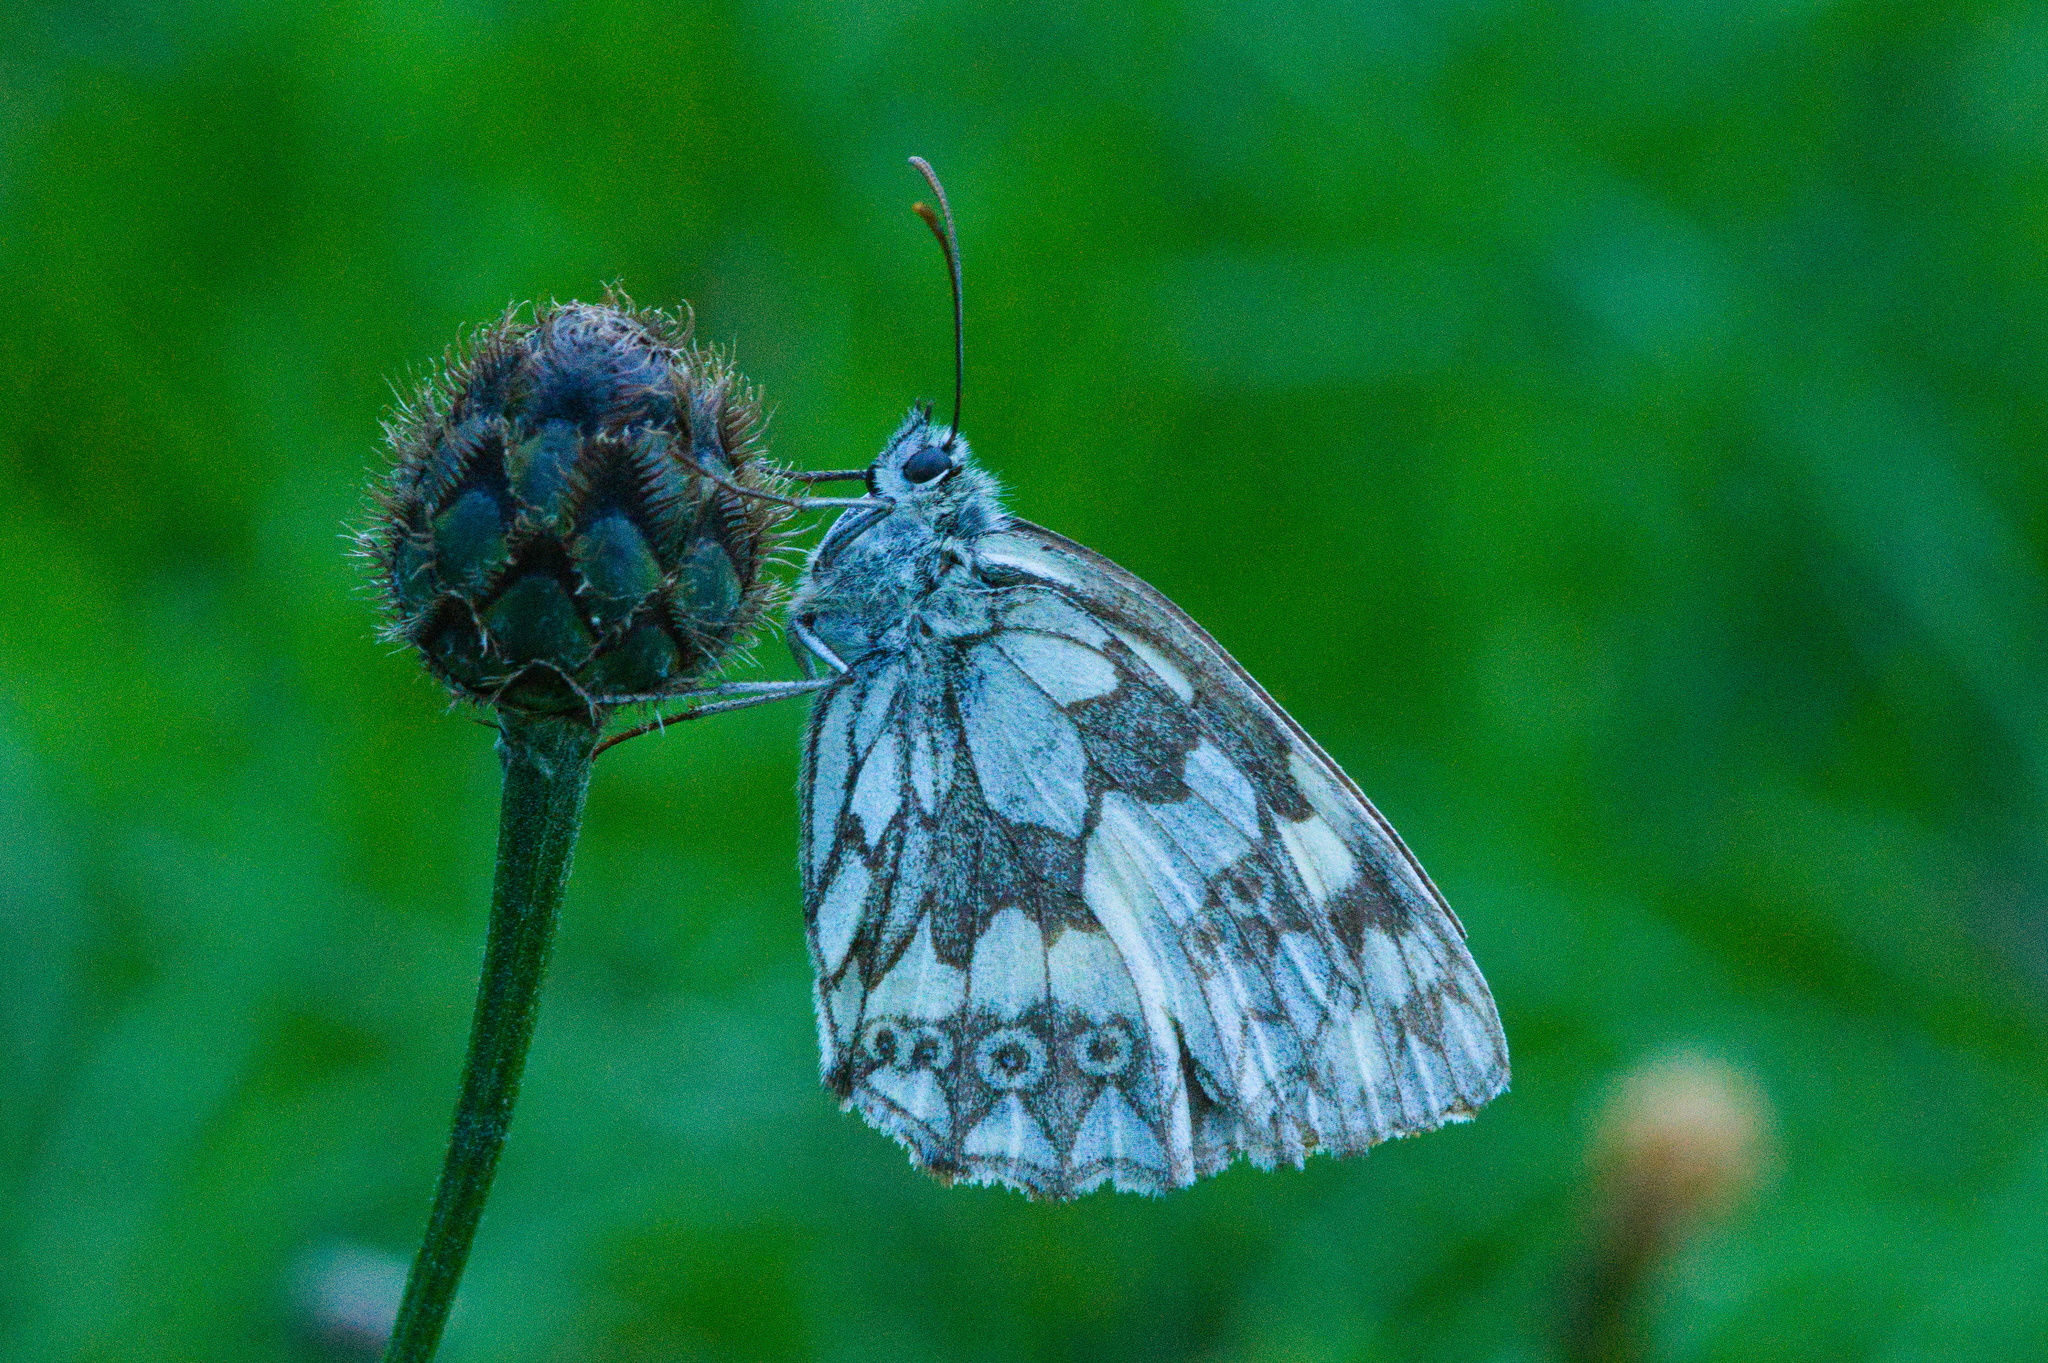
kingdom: Animalia
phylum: Arthropoda
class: Insecta
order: Lepidoptera
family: Nymphalidae
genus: Melanargia
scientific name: Melanargia galathea
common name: Marbled white
